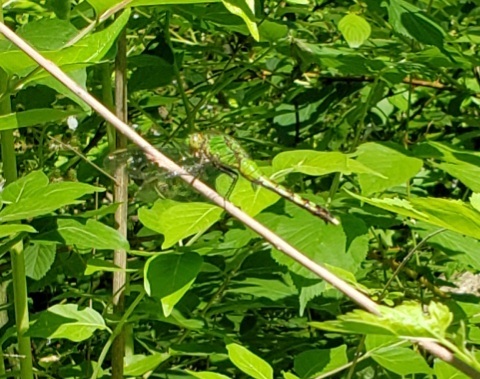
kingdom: Animalia
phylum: Arthropoda
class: Insecta
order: Odonata
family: Libellulidae
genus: Erythemis
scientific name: Erythemis simplicicollis
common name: Eastern pondhawk
